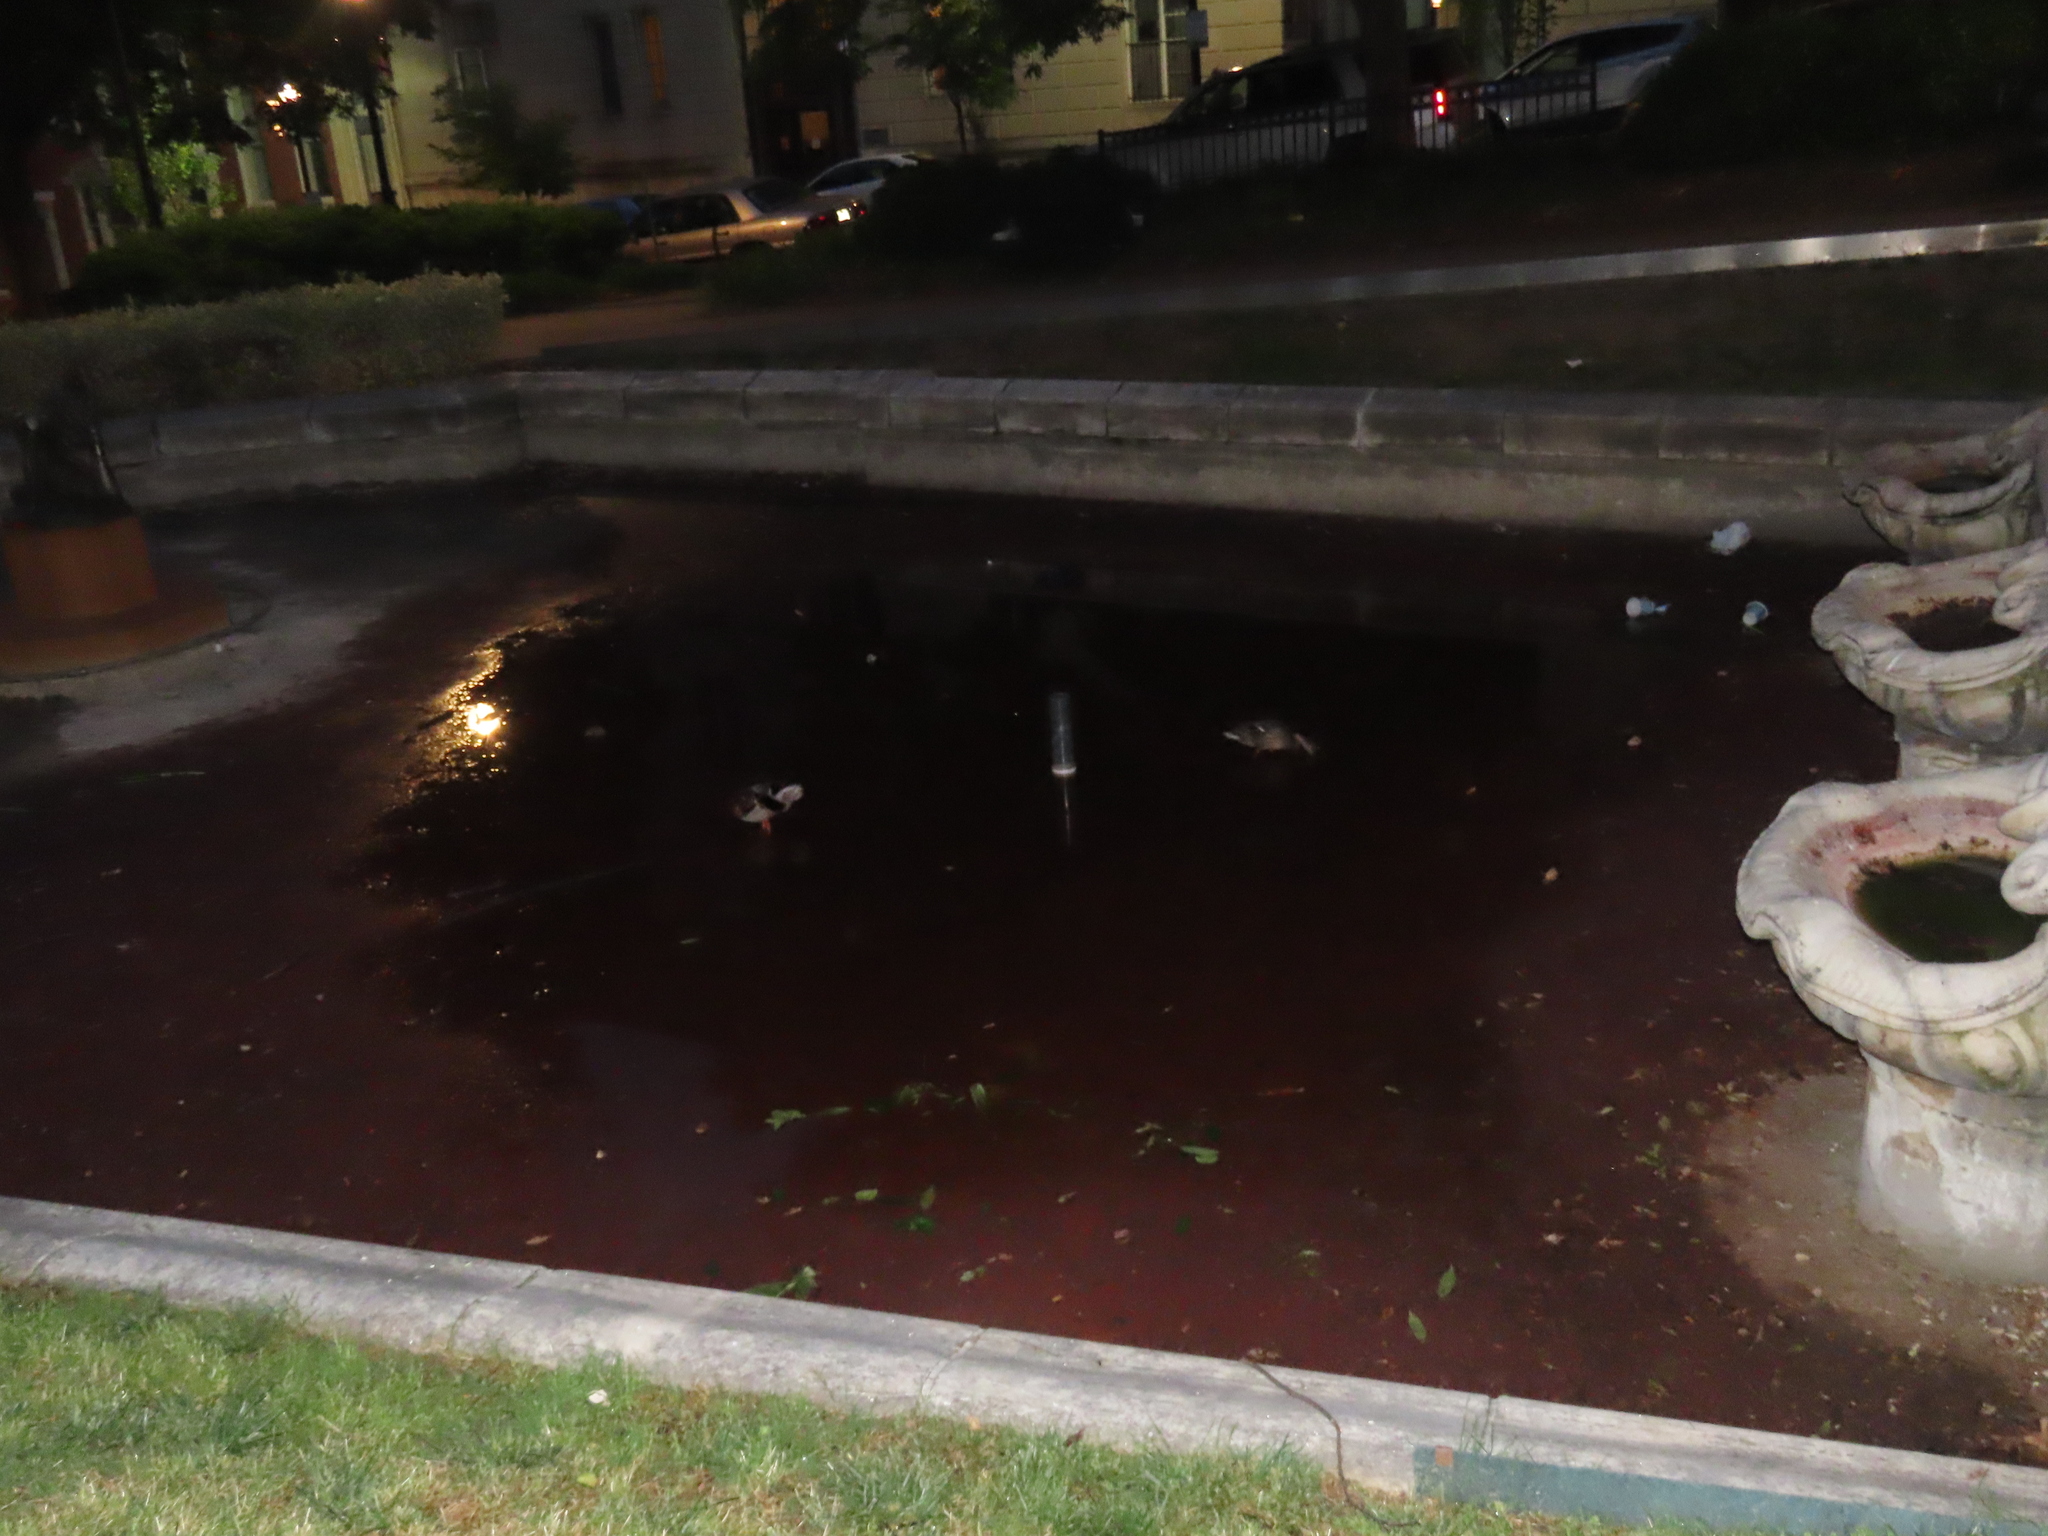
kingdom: Animalia
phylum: Chordata
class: Aves
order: Anseriformes
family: Anatidae
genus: Anas
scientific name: Anas platyrhynchos
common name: Mallard
